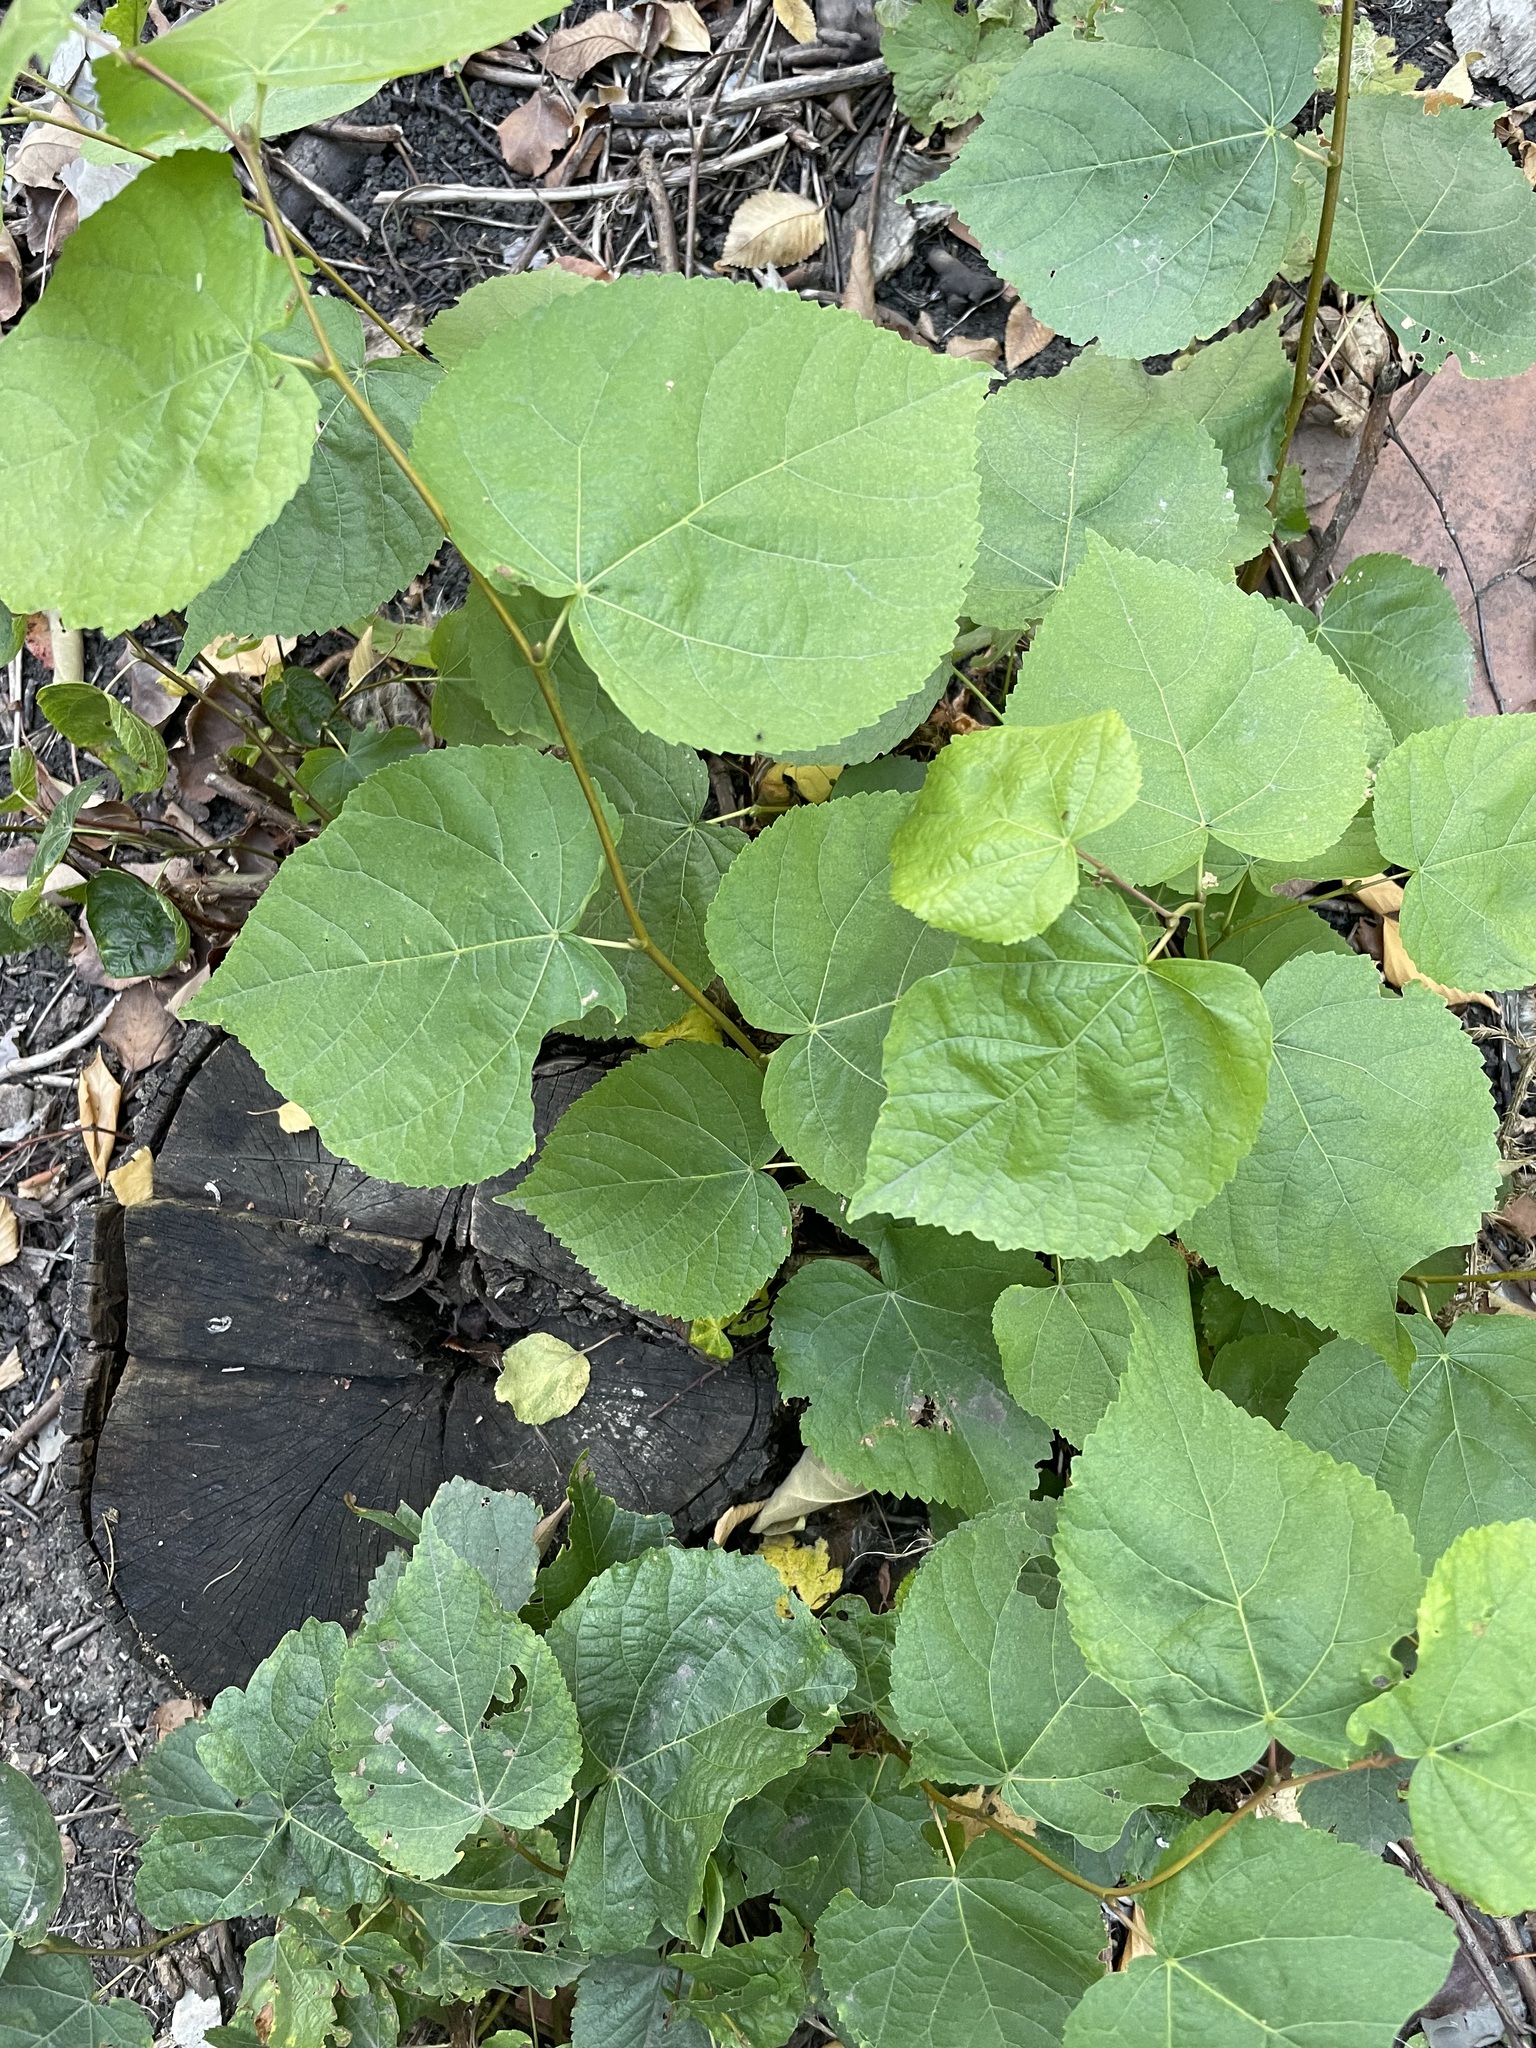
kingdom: Plantae
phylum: Tracheophyta
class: Magnoliopsida
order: Malvales
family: Malvaceae
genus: Tilia
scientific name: Tilia cordata
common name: Small-leaved lime
